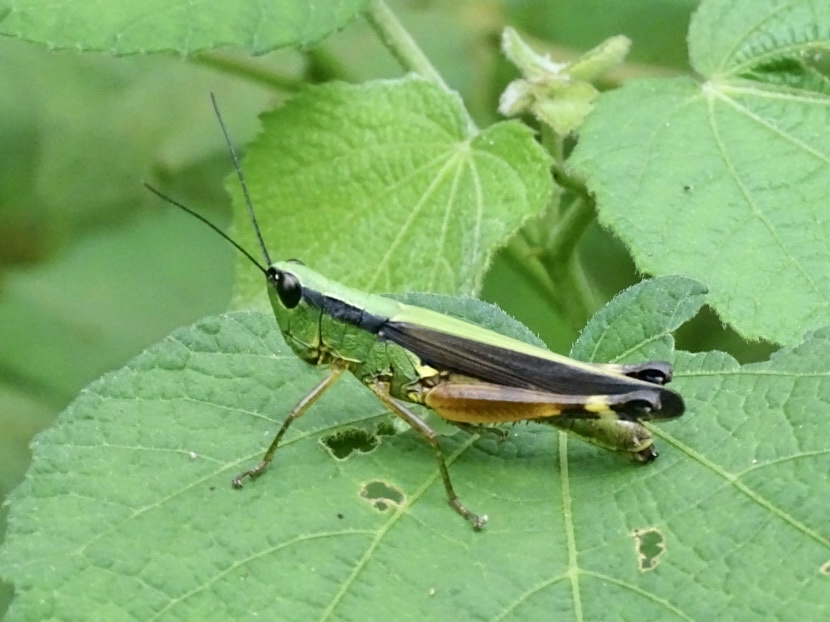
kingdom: Animalia
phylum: Arthropoda
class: Insecta
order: Orthoptera
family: Acrididae
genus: Ceracris
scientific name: Ceracris nigricornis
